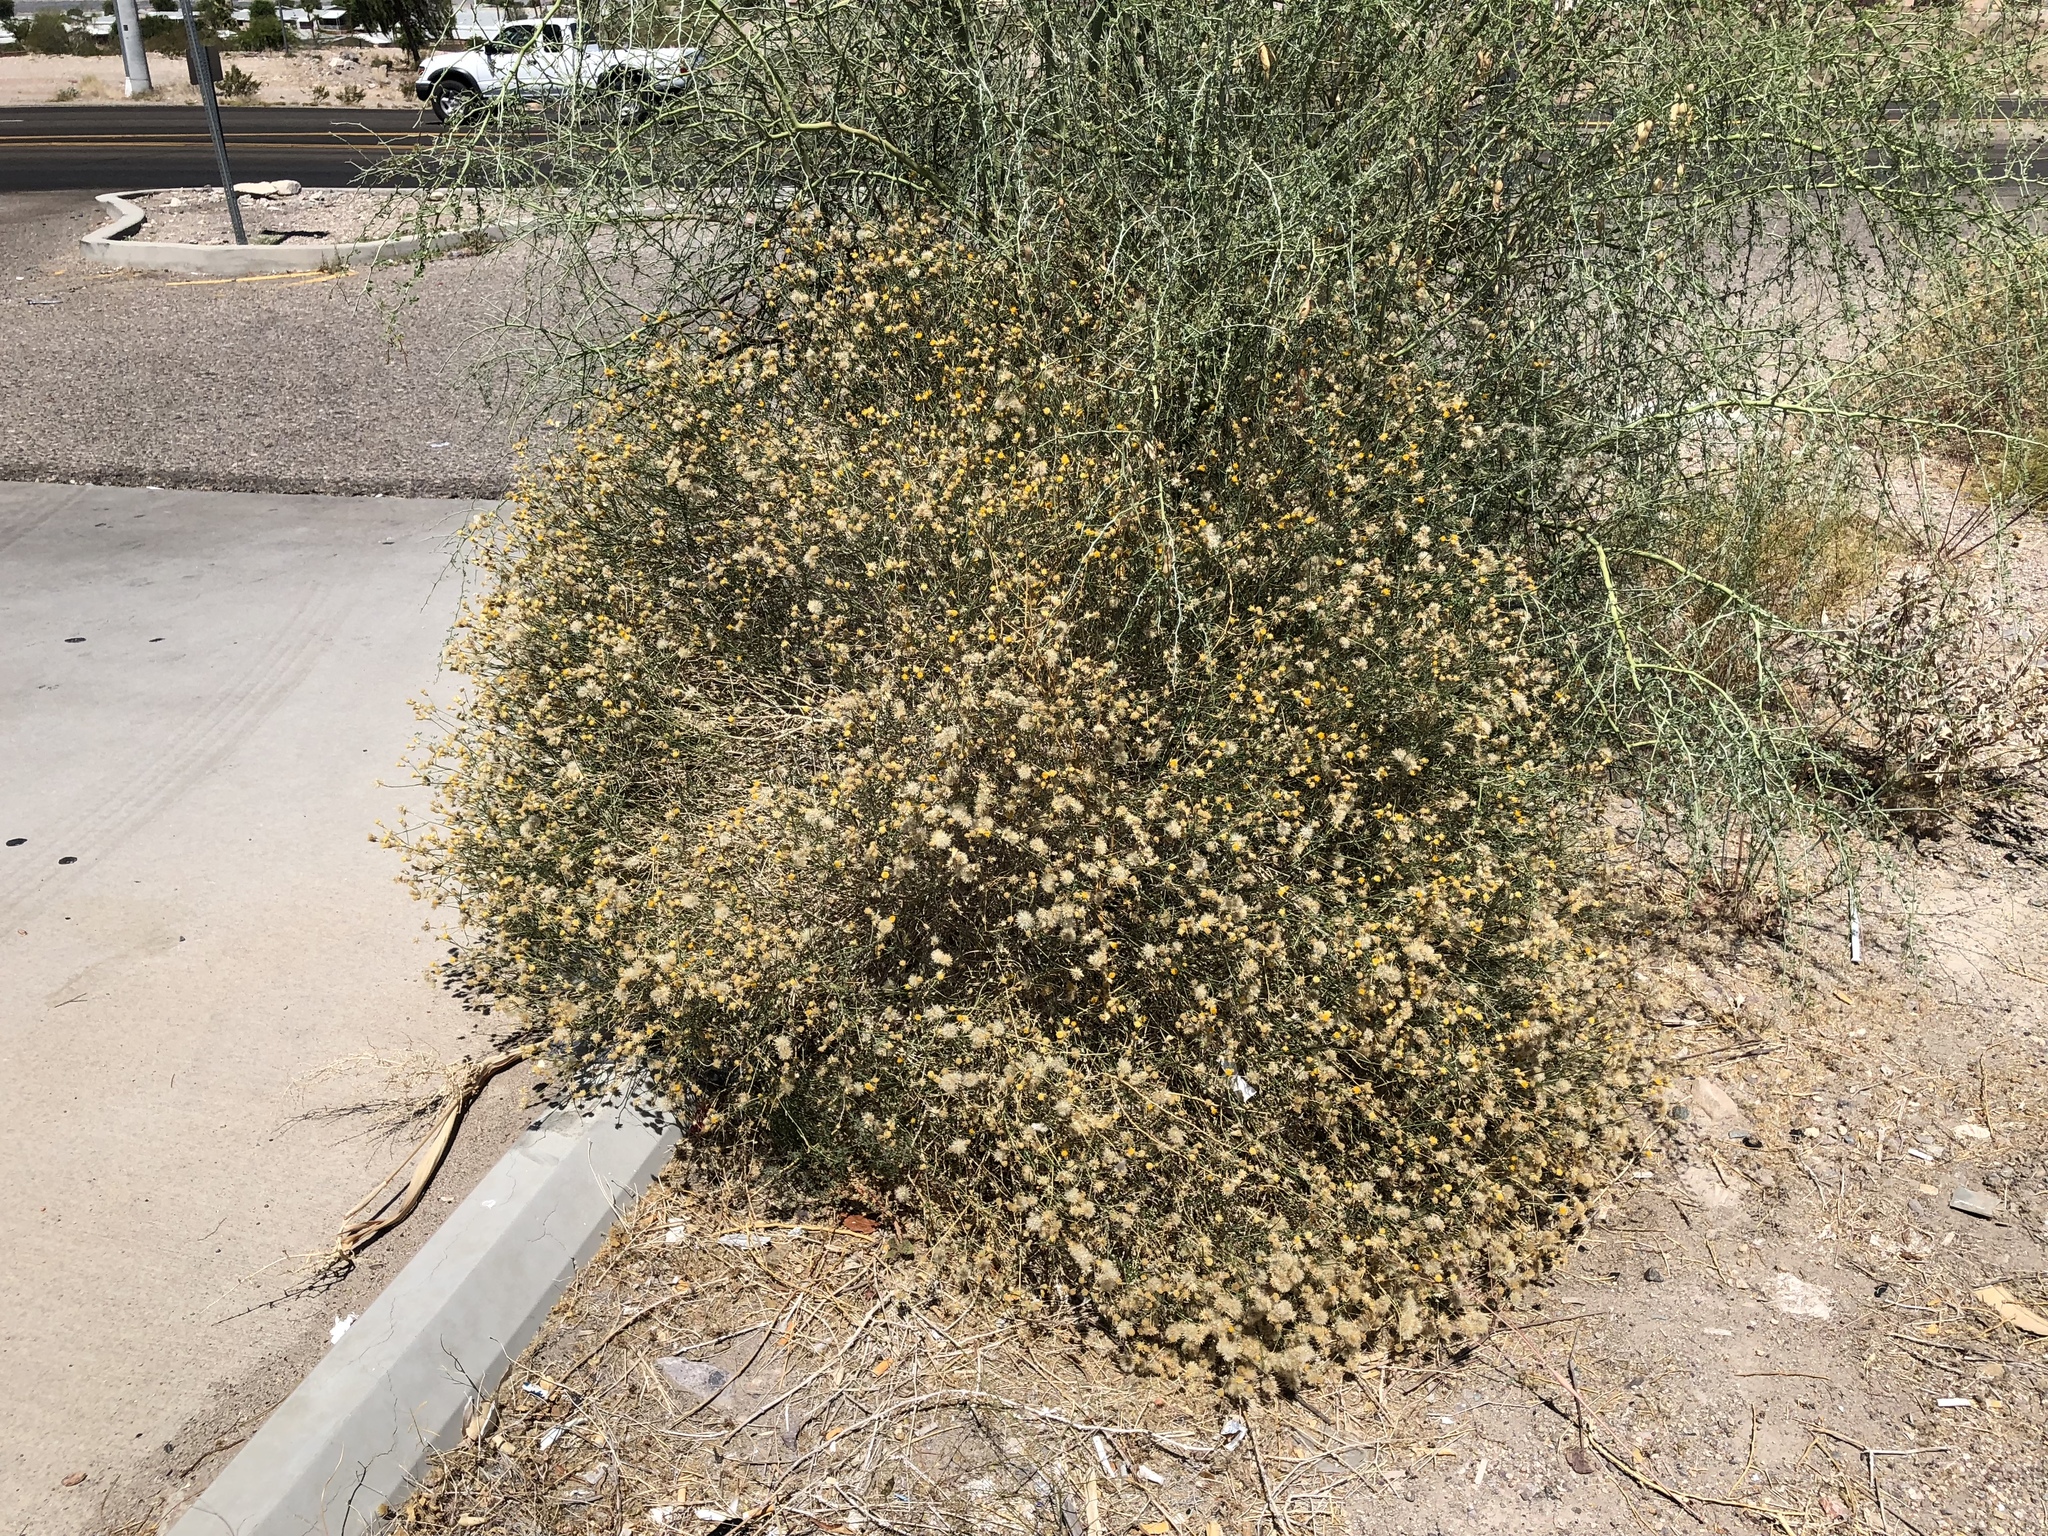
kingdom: Plantae
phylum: Tracheophyta
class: Magnoliopsida
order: Asterales
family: Asteraceae
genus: Bebbia
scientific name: Bebbia juncea
